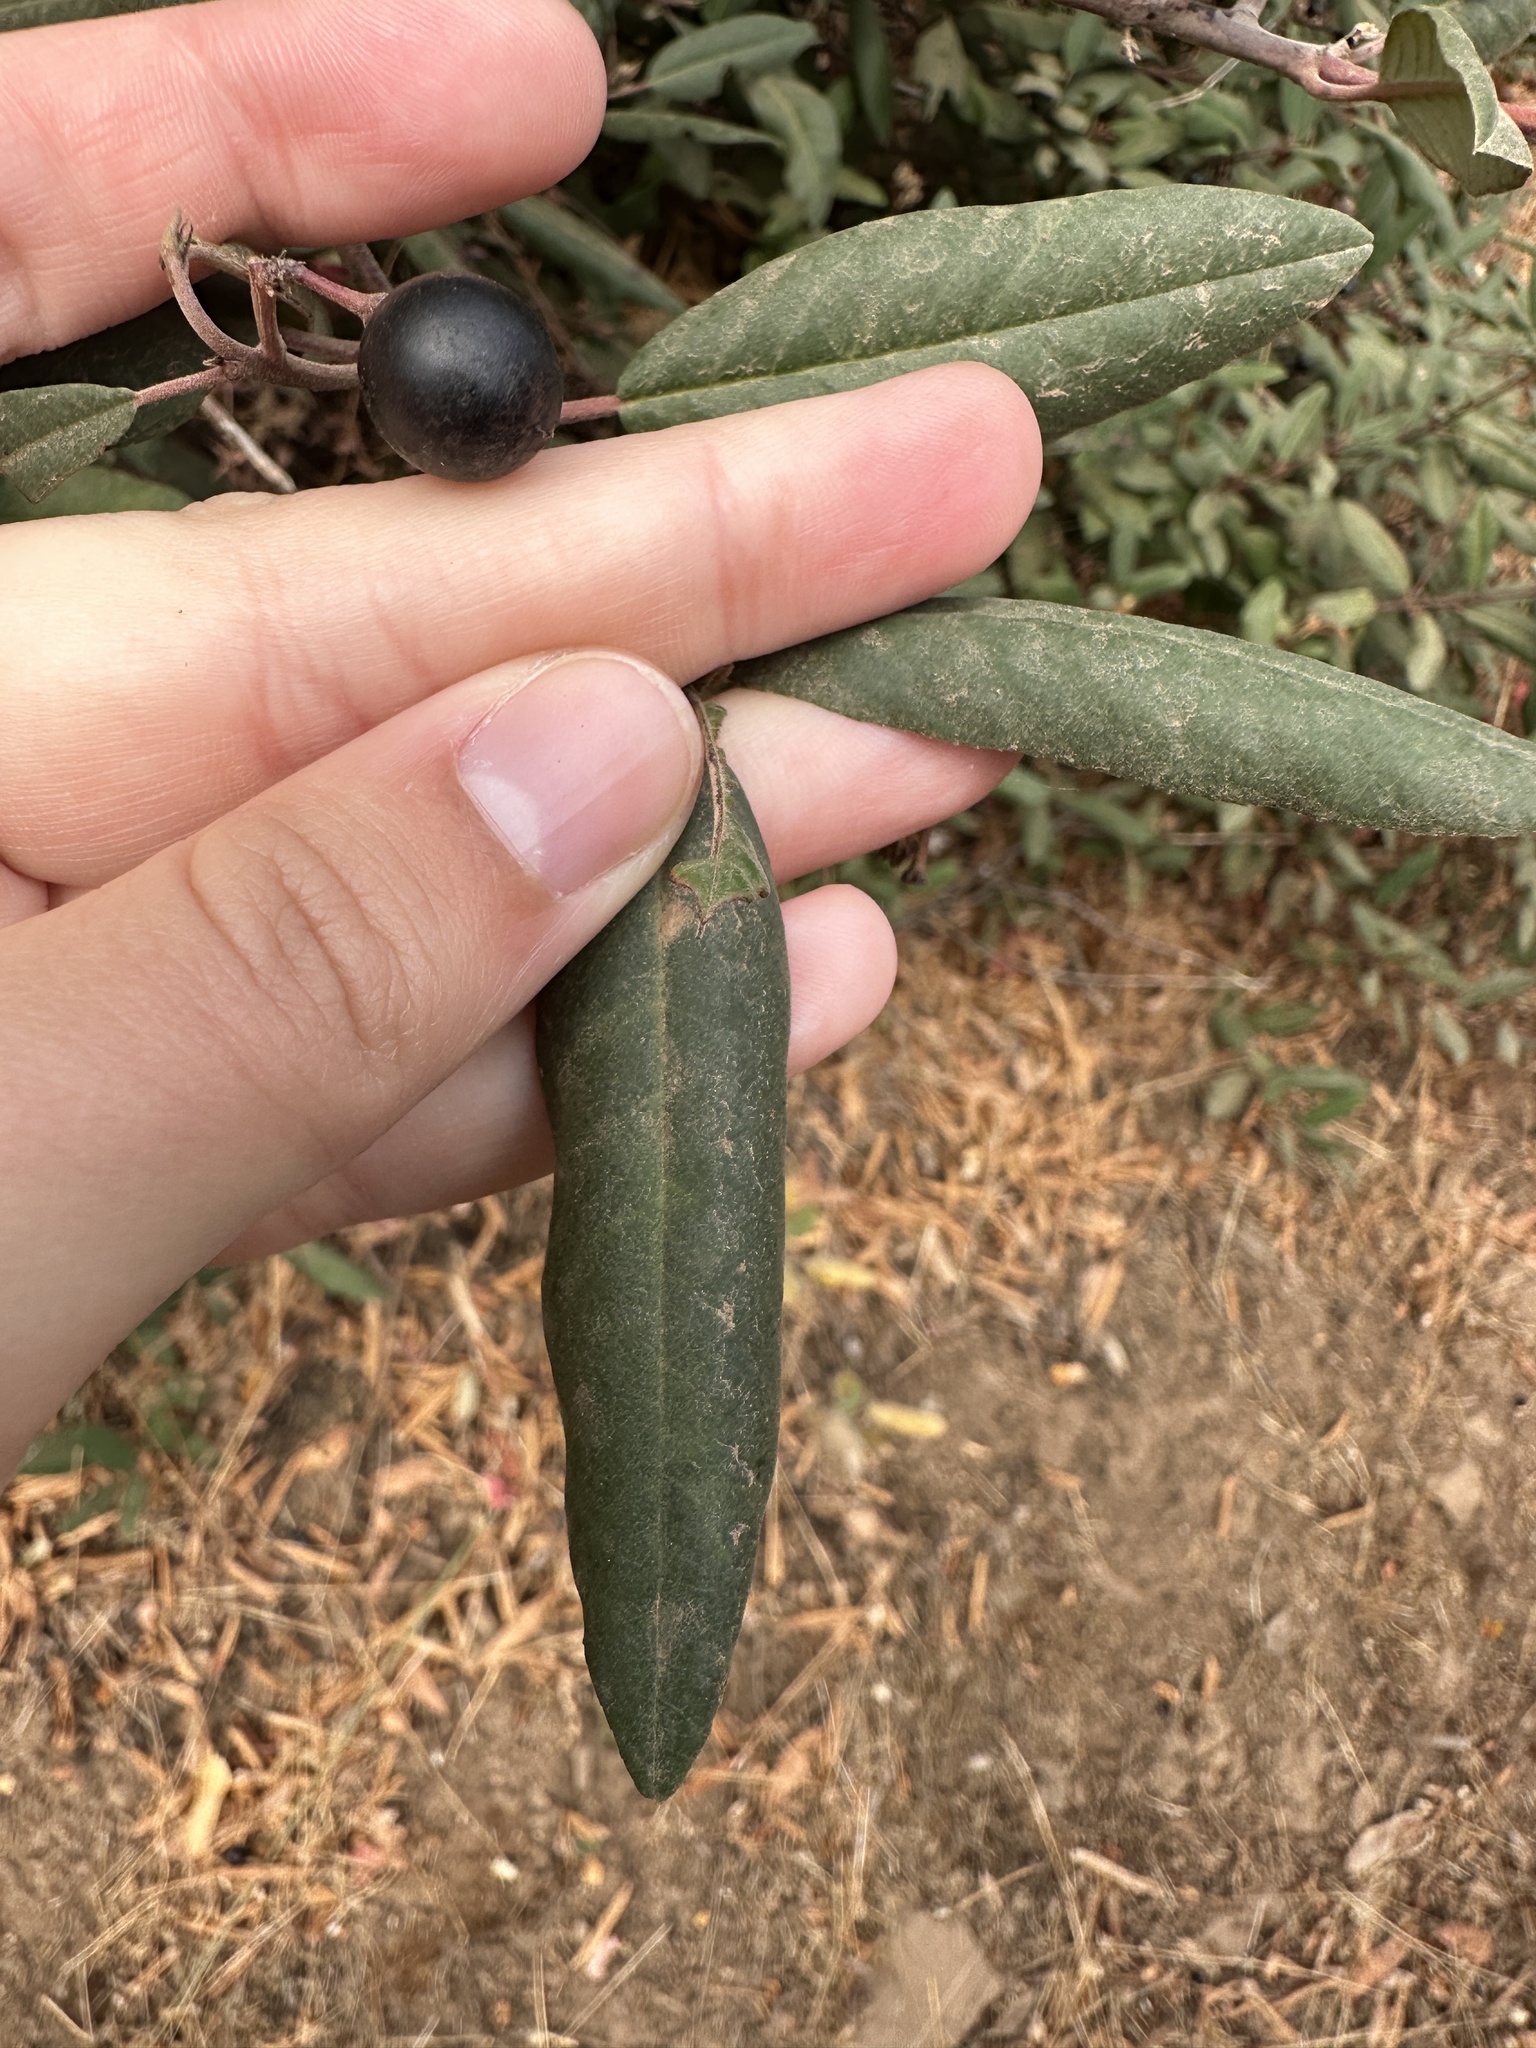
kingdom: Plantae
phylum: Tracheophyta
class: Magnoliopsida
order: Rosales
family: Rhamnaceae
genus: Frangula
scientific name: Frangula californica
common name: California buckthorn
